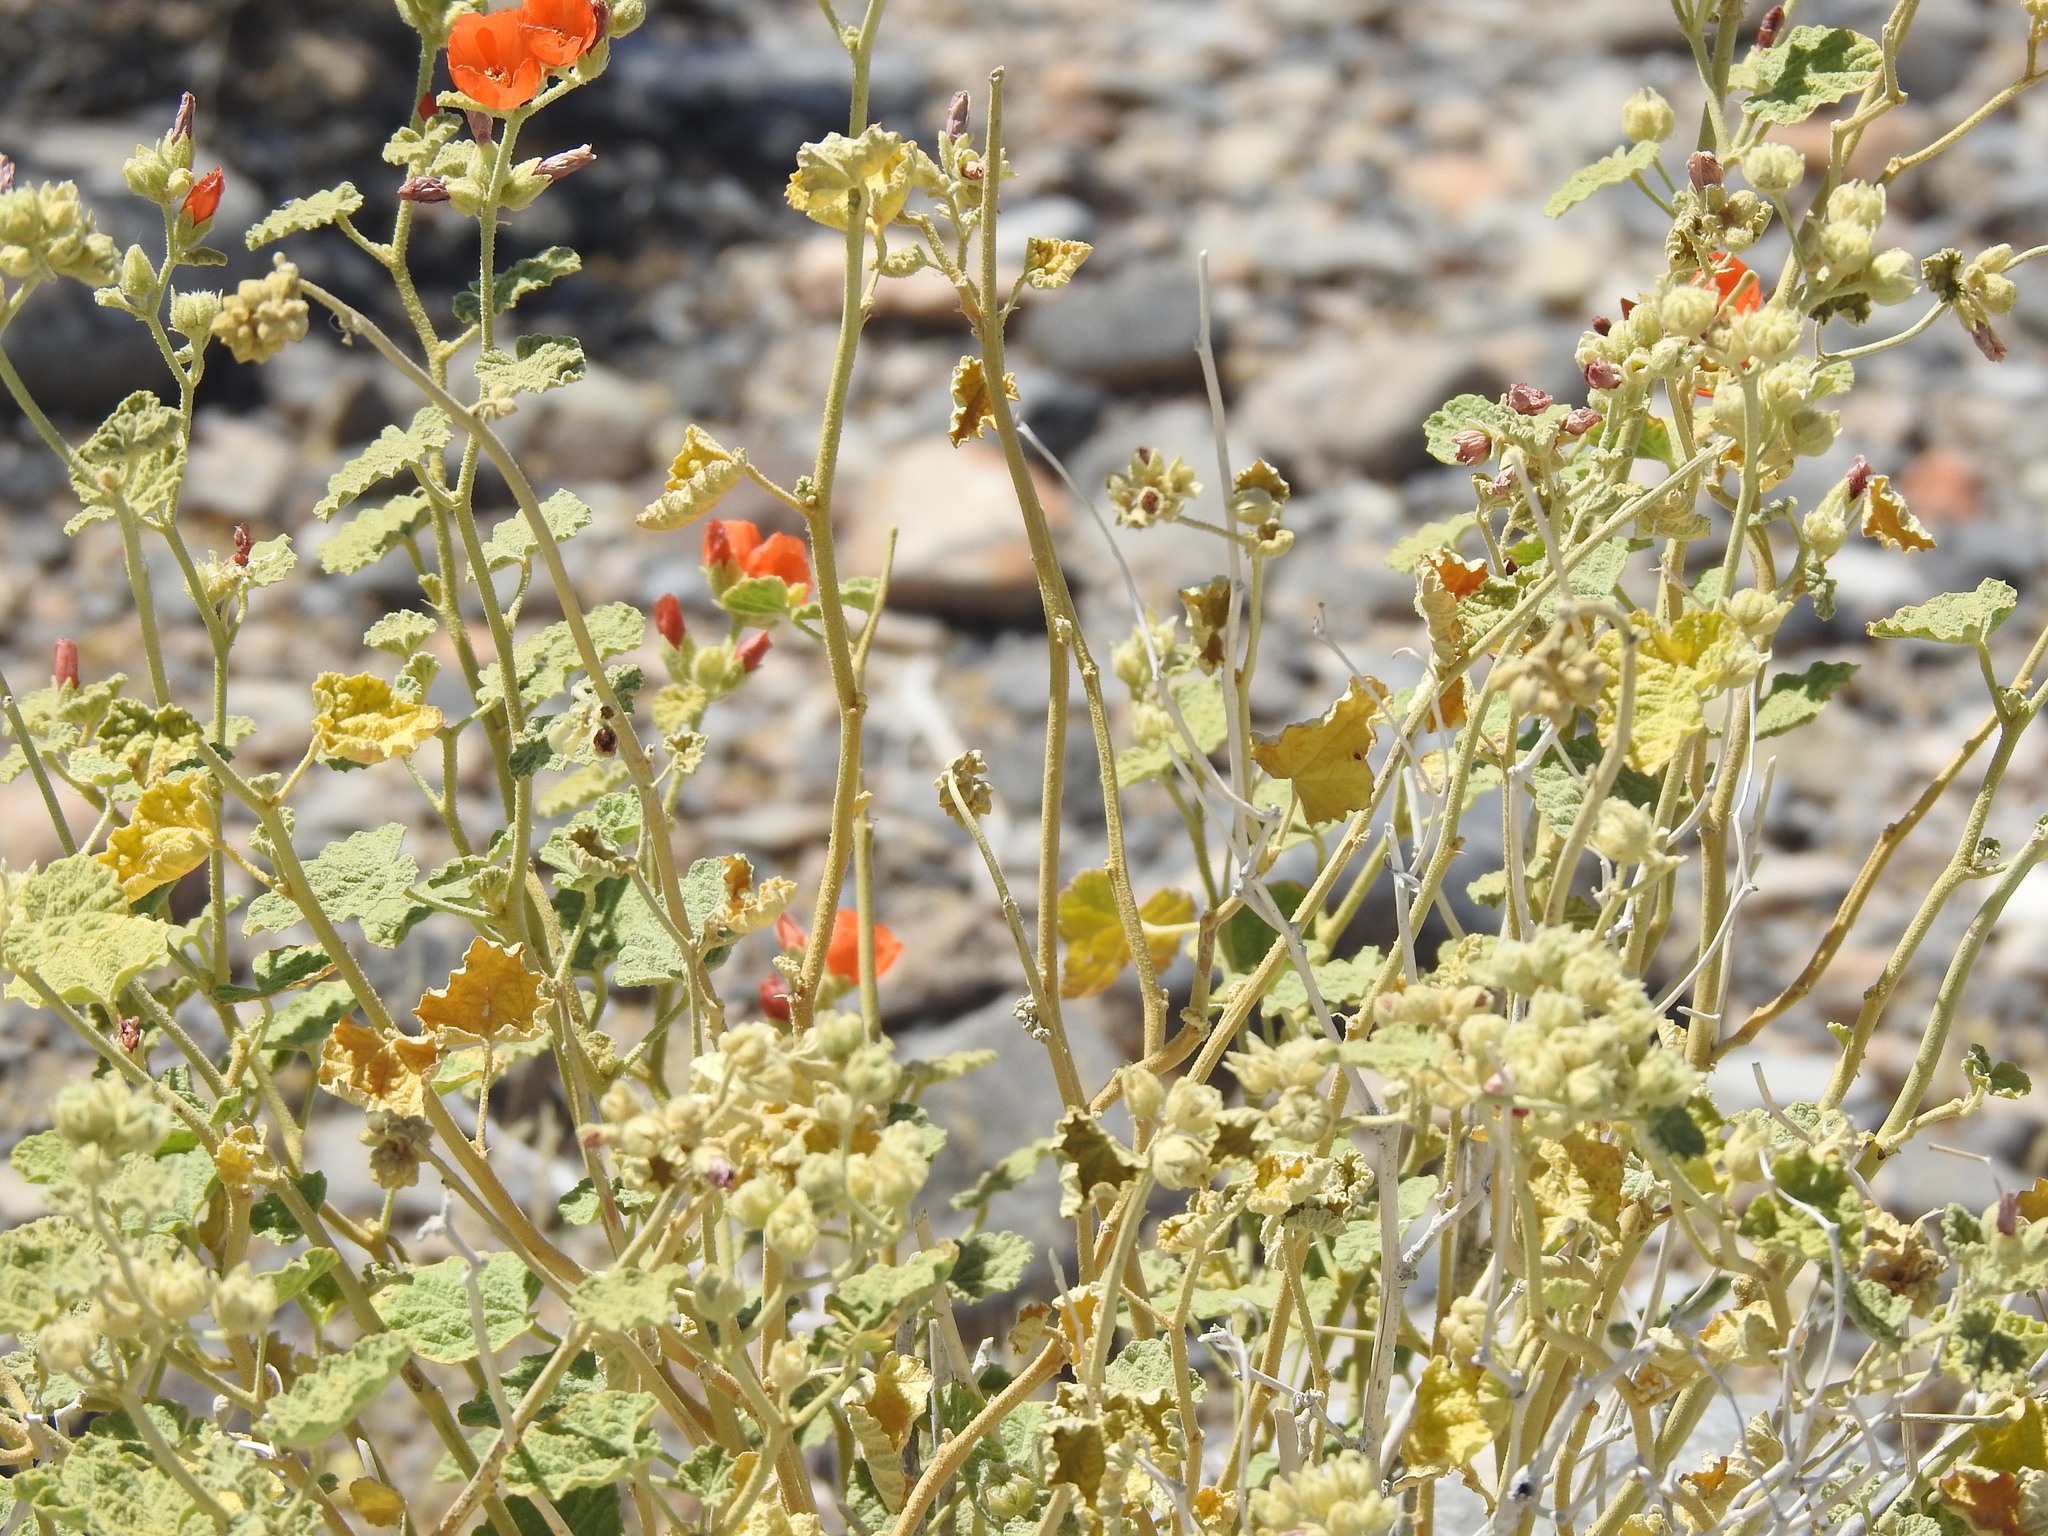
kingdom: Plantae
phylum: Tracheophyta
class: Magnoliopsida
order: Malvales
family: Malvaceae
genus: Sphaeralcea
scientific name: Sphaeralcea ambigua
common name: Apricot globe-mallow
